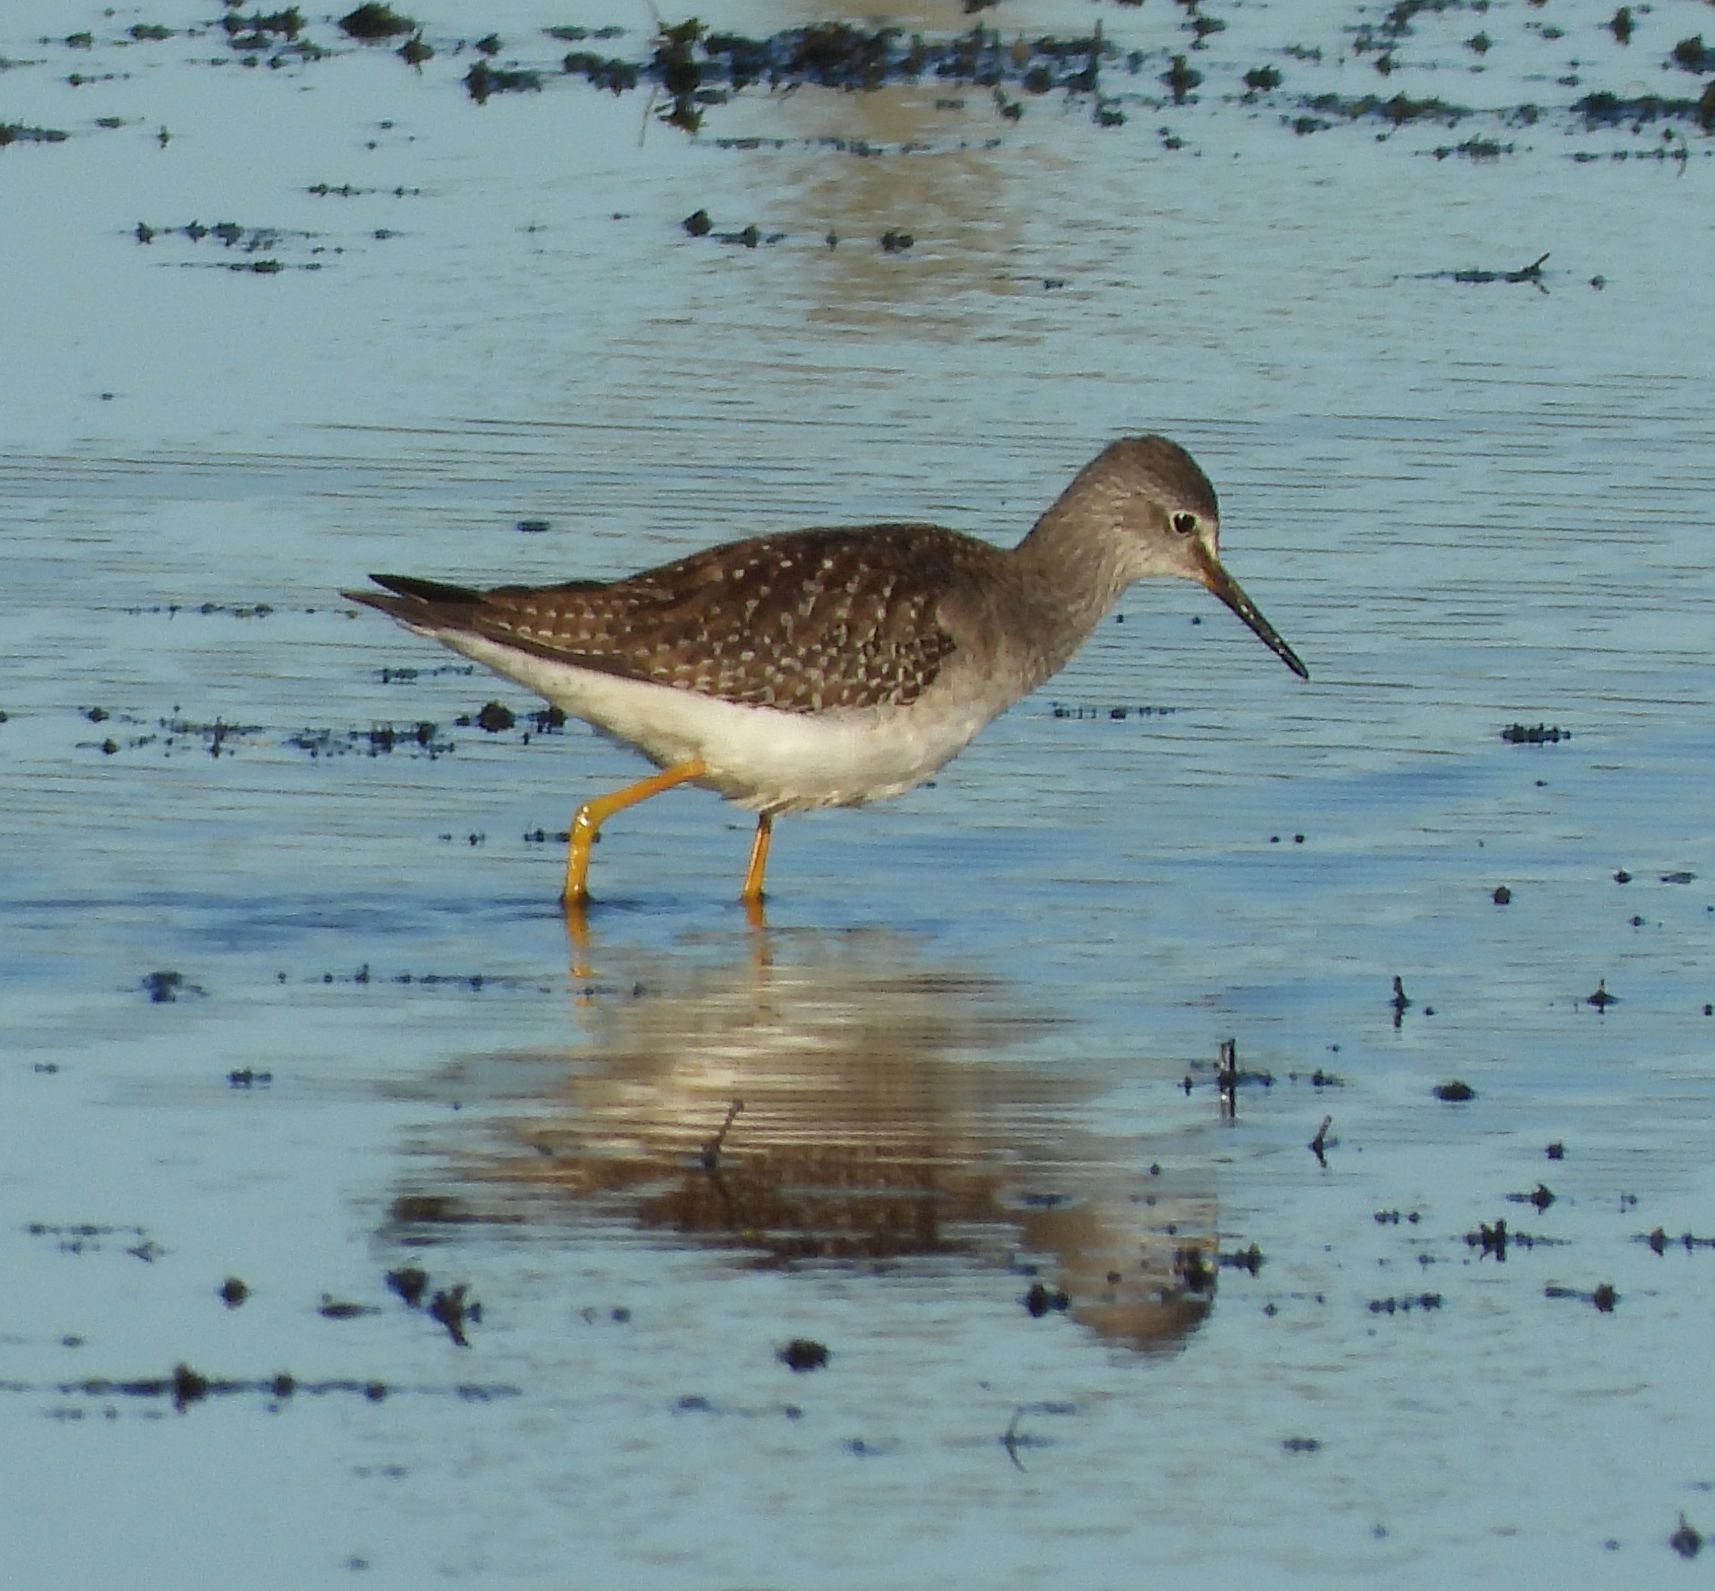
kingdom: Animalia
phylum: Chordata
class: Aves
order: Charadriiformes
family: Scolopacidae
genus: Tringa
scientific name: Tringa flavipes
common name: Lesser yellowlegs
